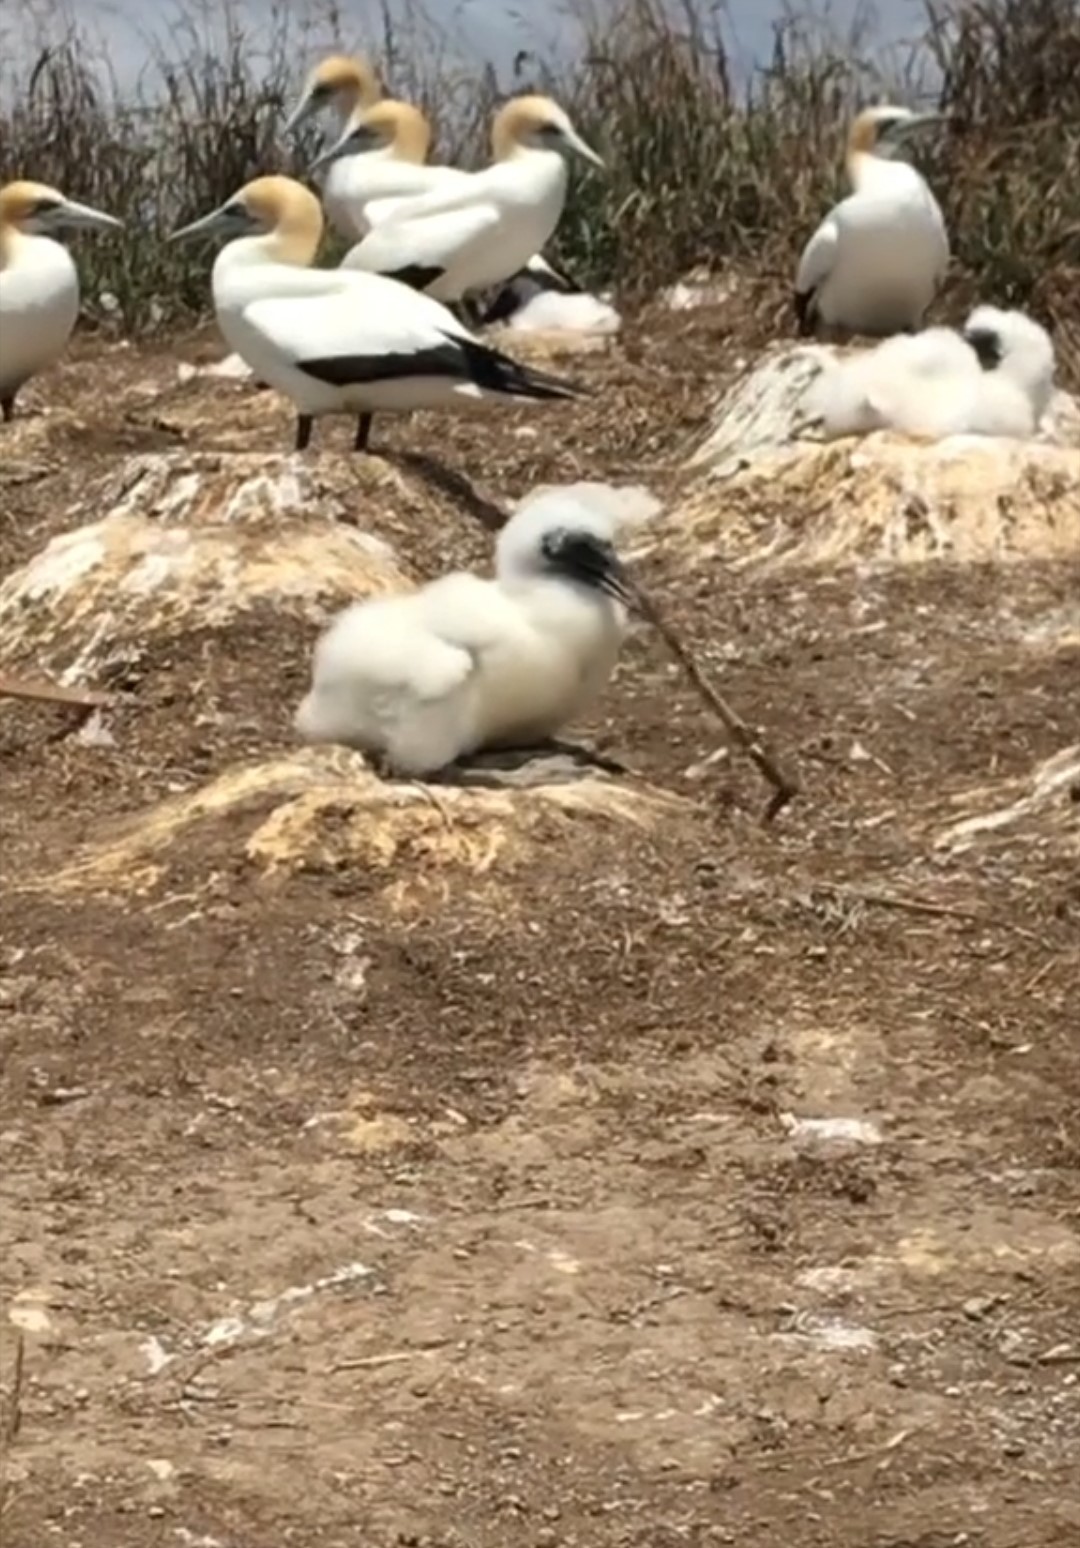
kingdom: Animalia
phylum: Chordata
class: Aves
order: Suliformes
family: Sulidae
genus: Morus
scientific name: Morus serrator
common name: Australasian gannet
